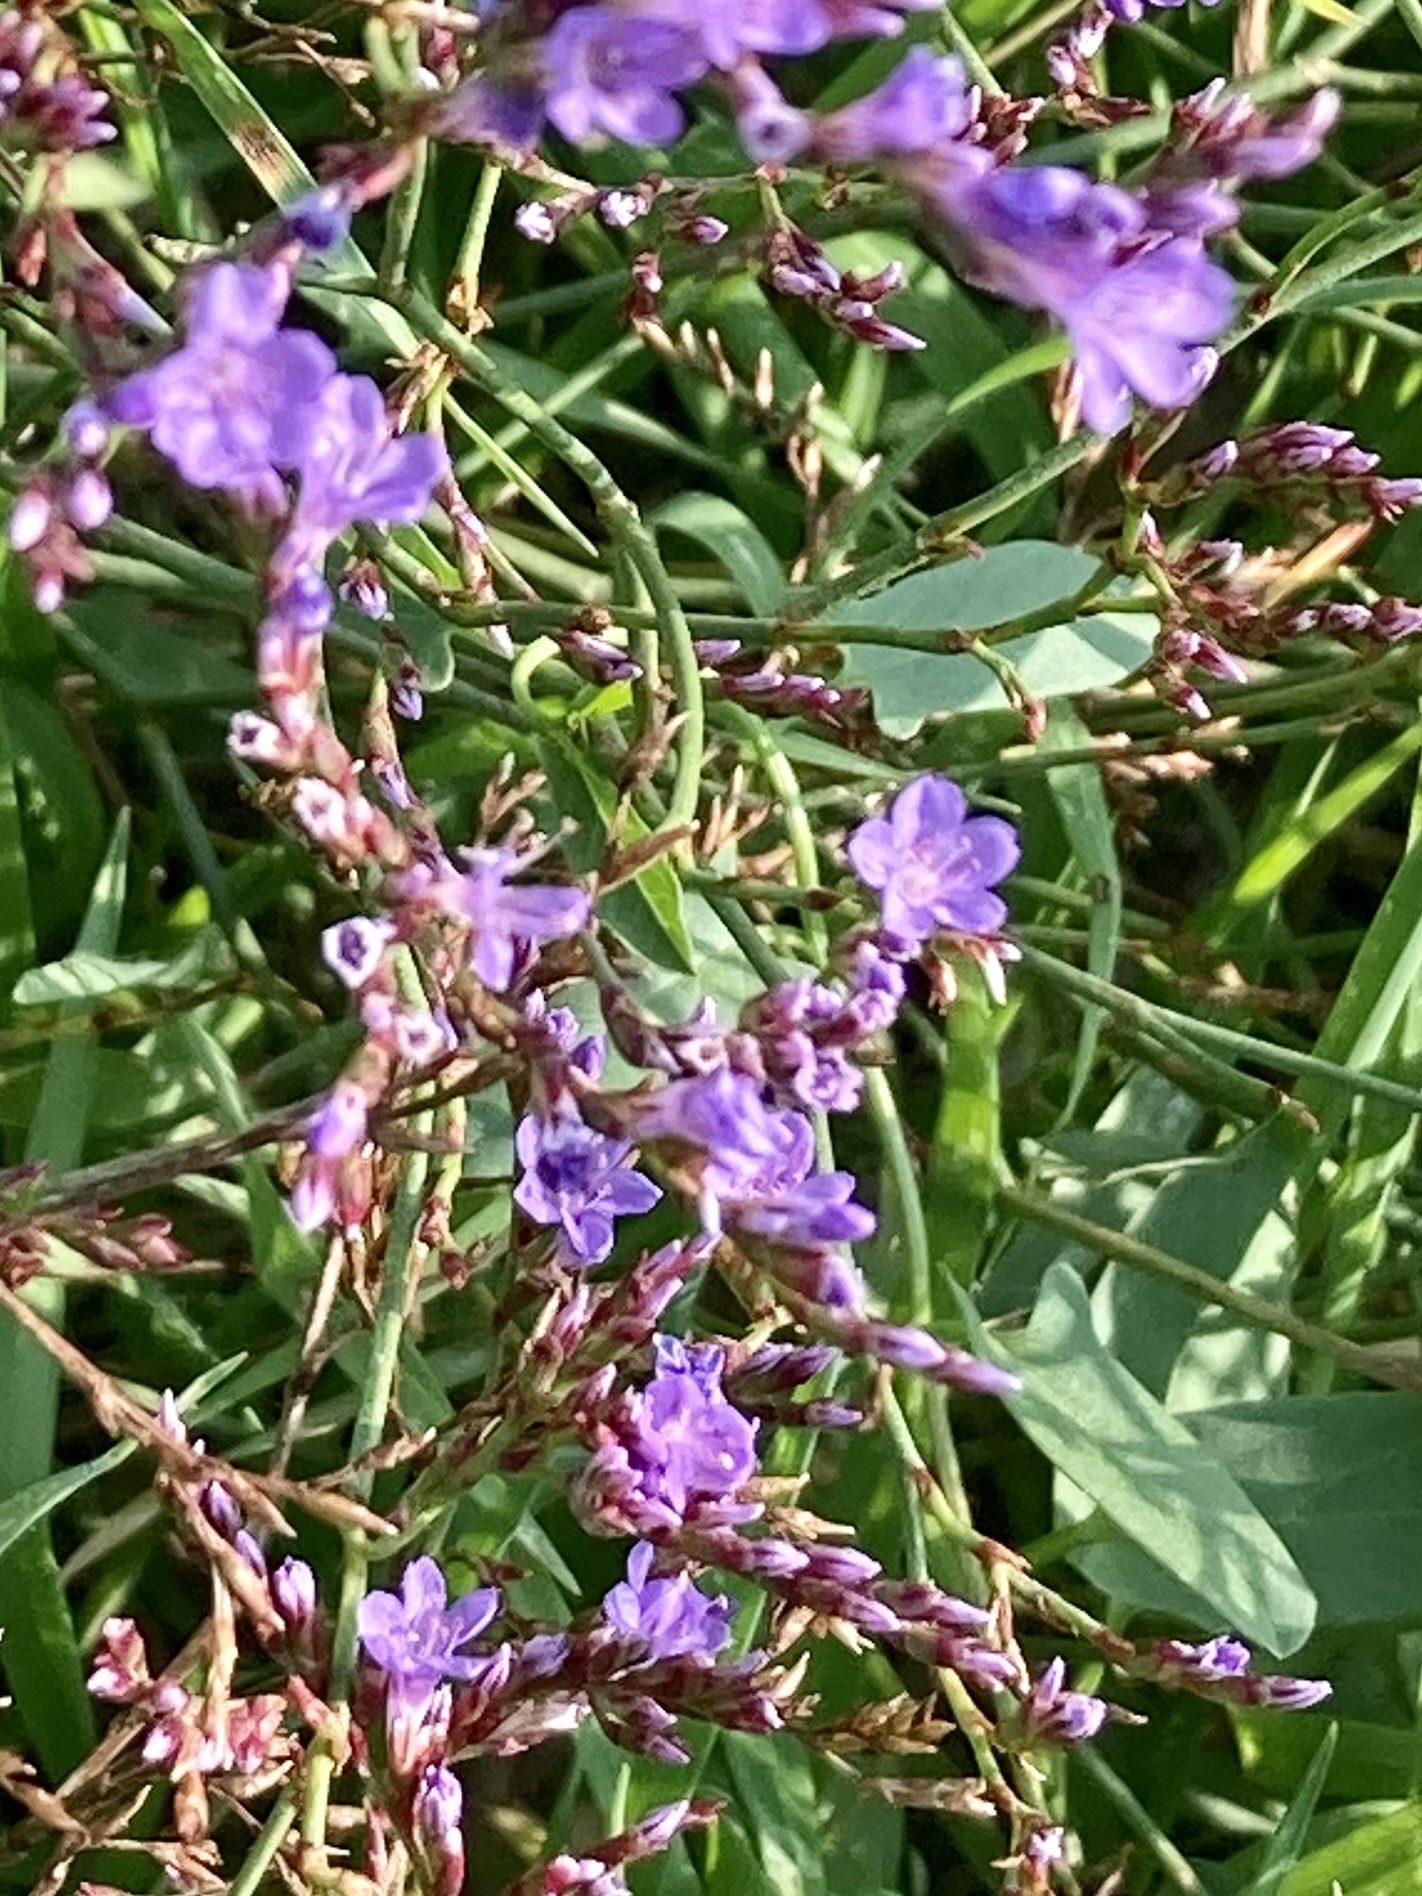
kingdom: Plantae
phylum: Tracheophyta
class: Magnoliopsida
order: Caryophyllales
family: Plumbaginaceae
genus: Limonium
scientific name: Limonium narbonense
